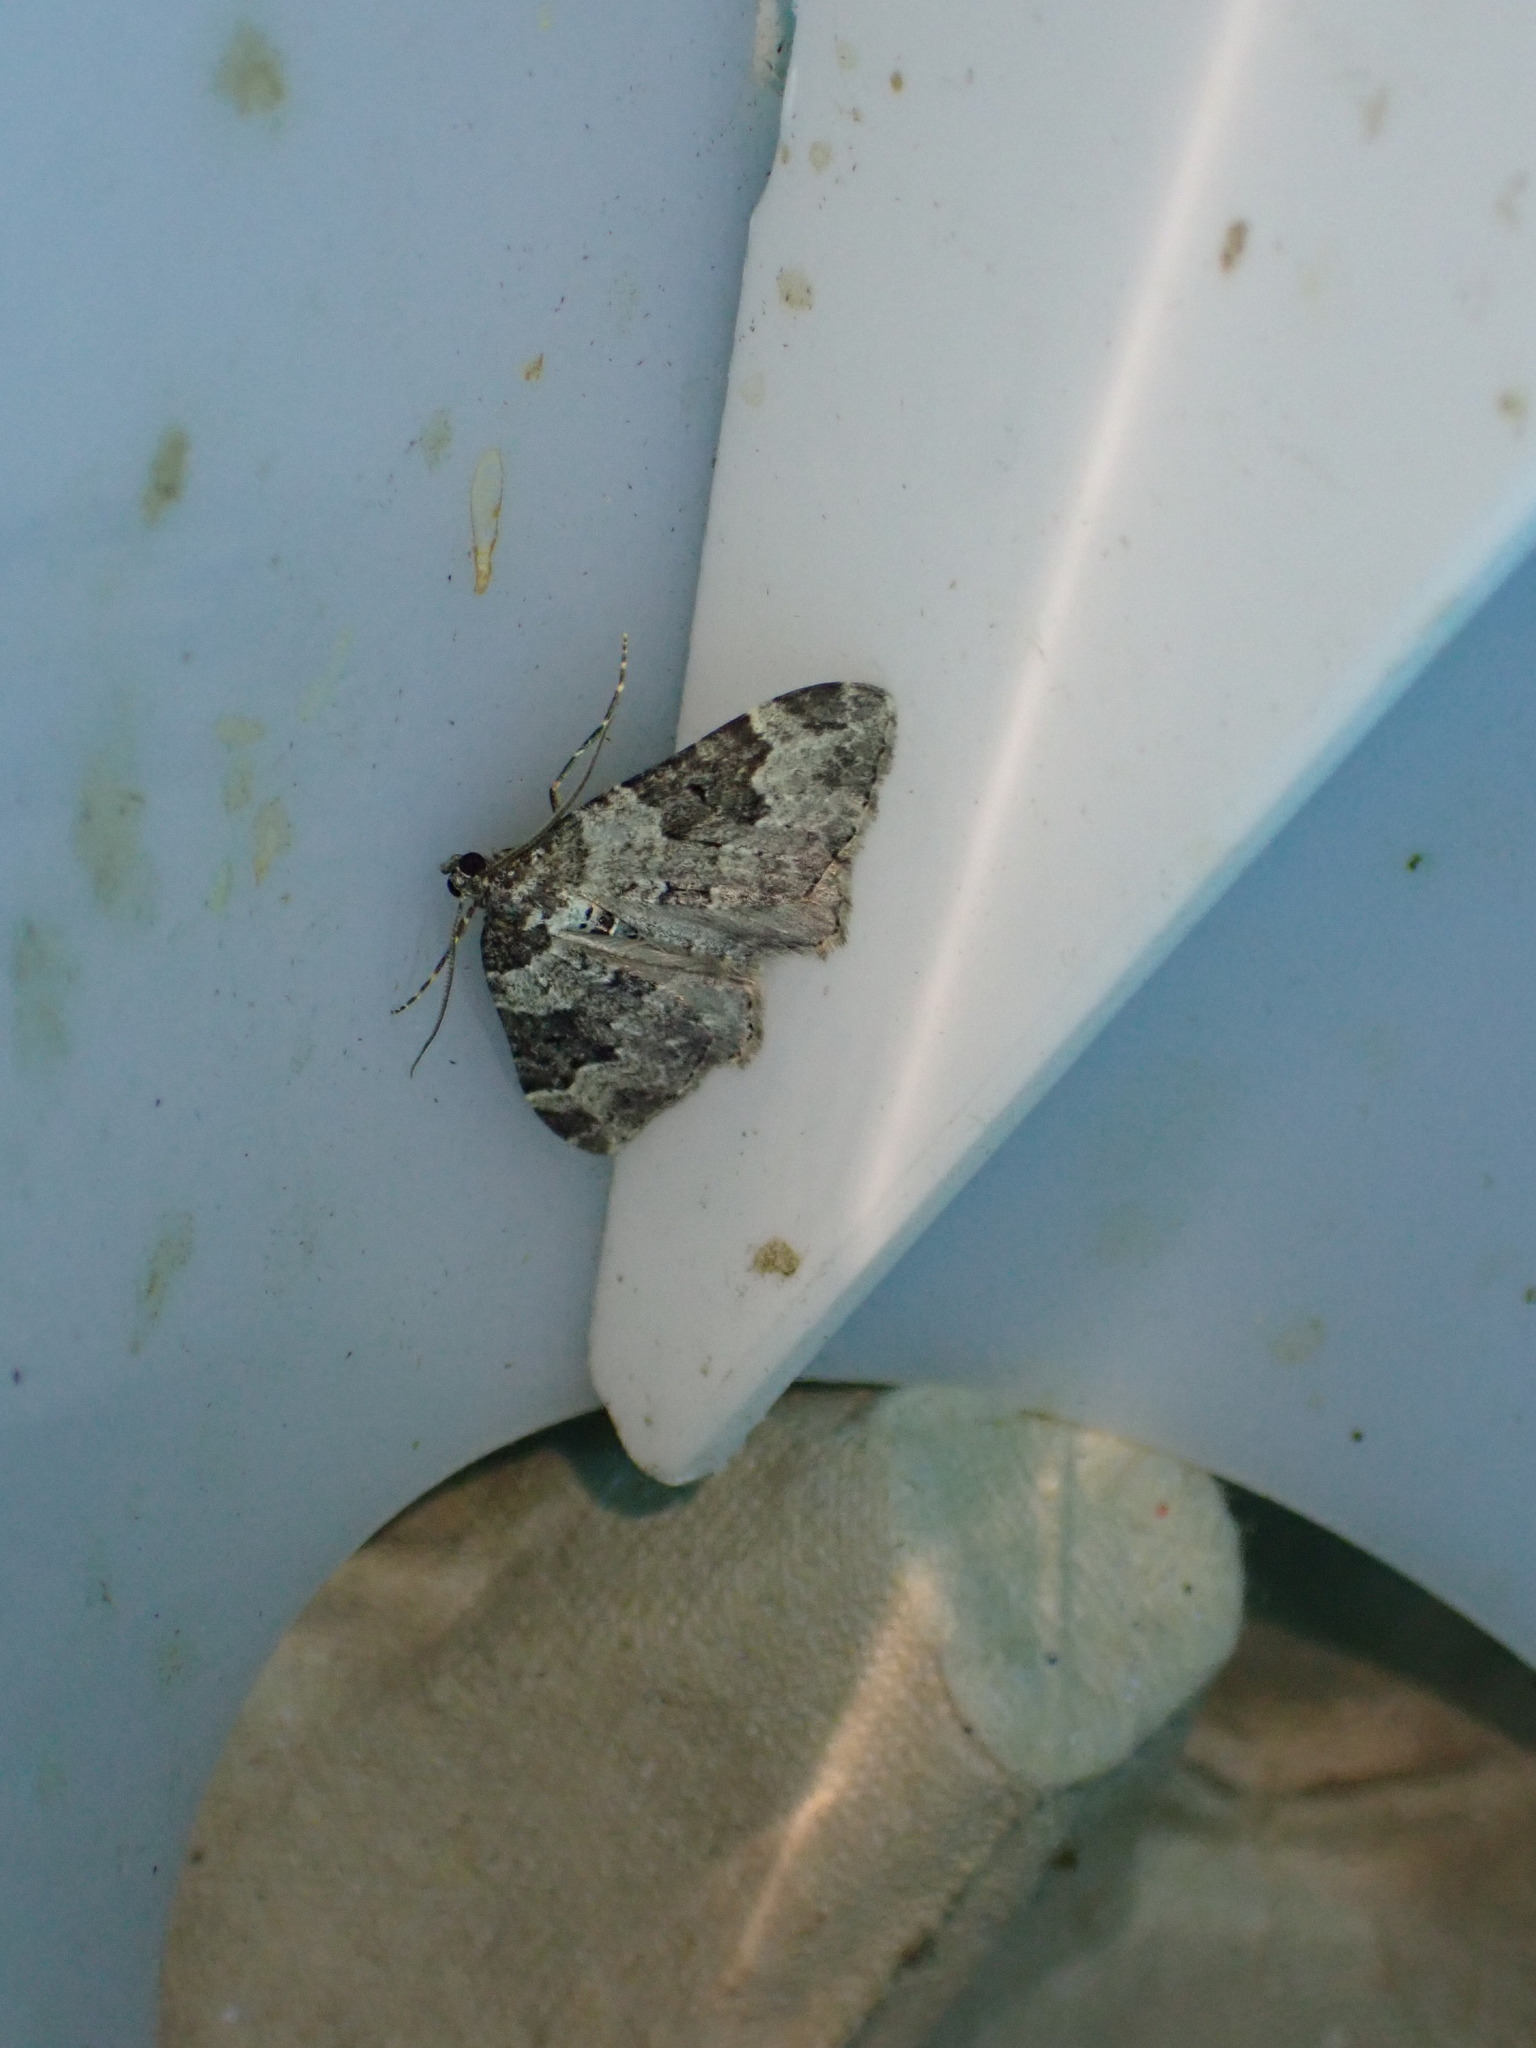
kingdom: Animalia
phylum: Arthropoda
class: Insecta
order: Lepidoptera
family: Geometridae
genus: Xanthorhoe
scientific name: Xanthorhoe fluctuata
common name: Garden carpet
